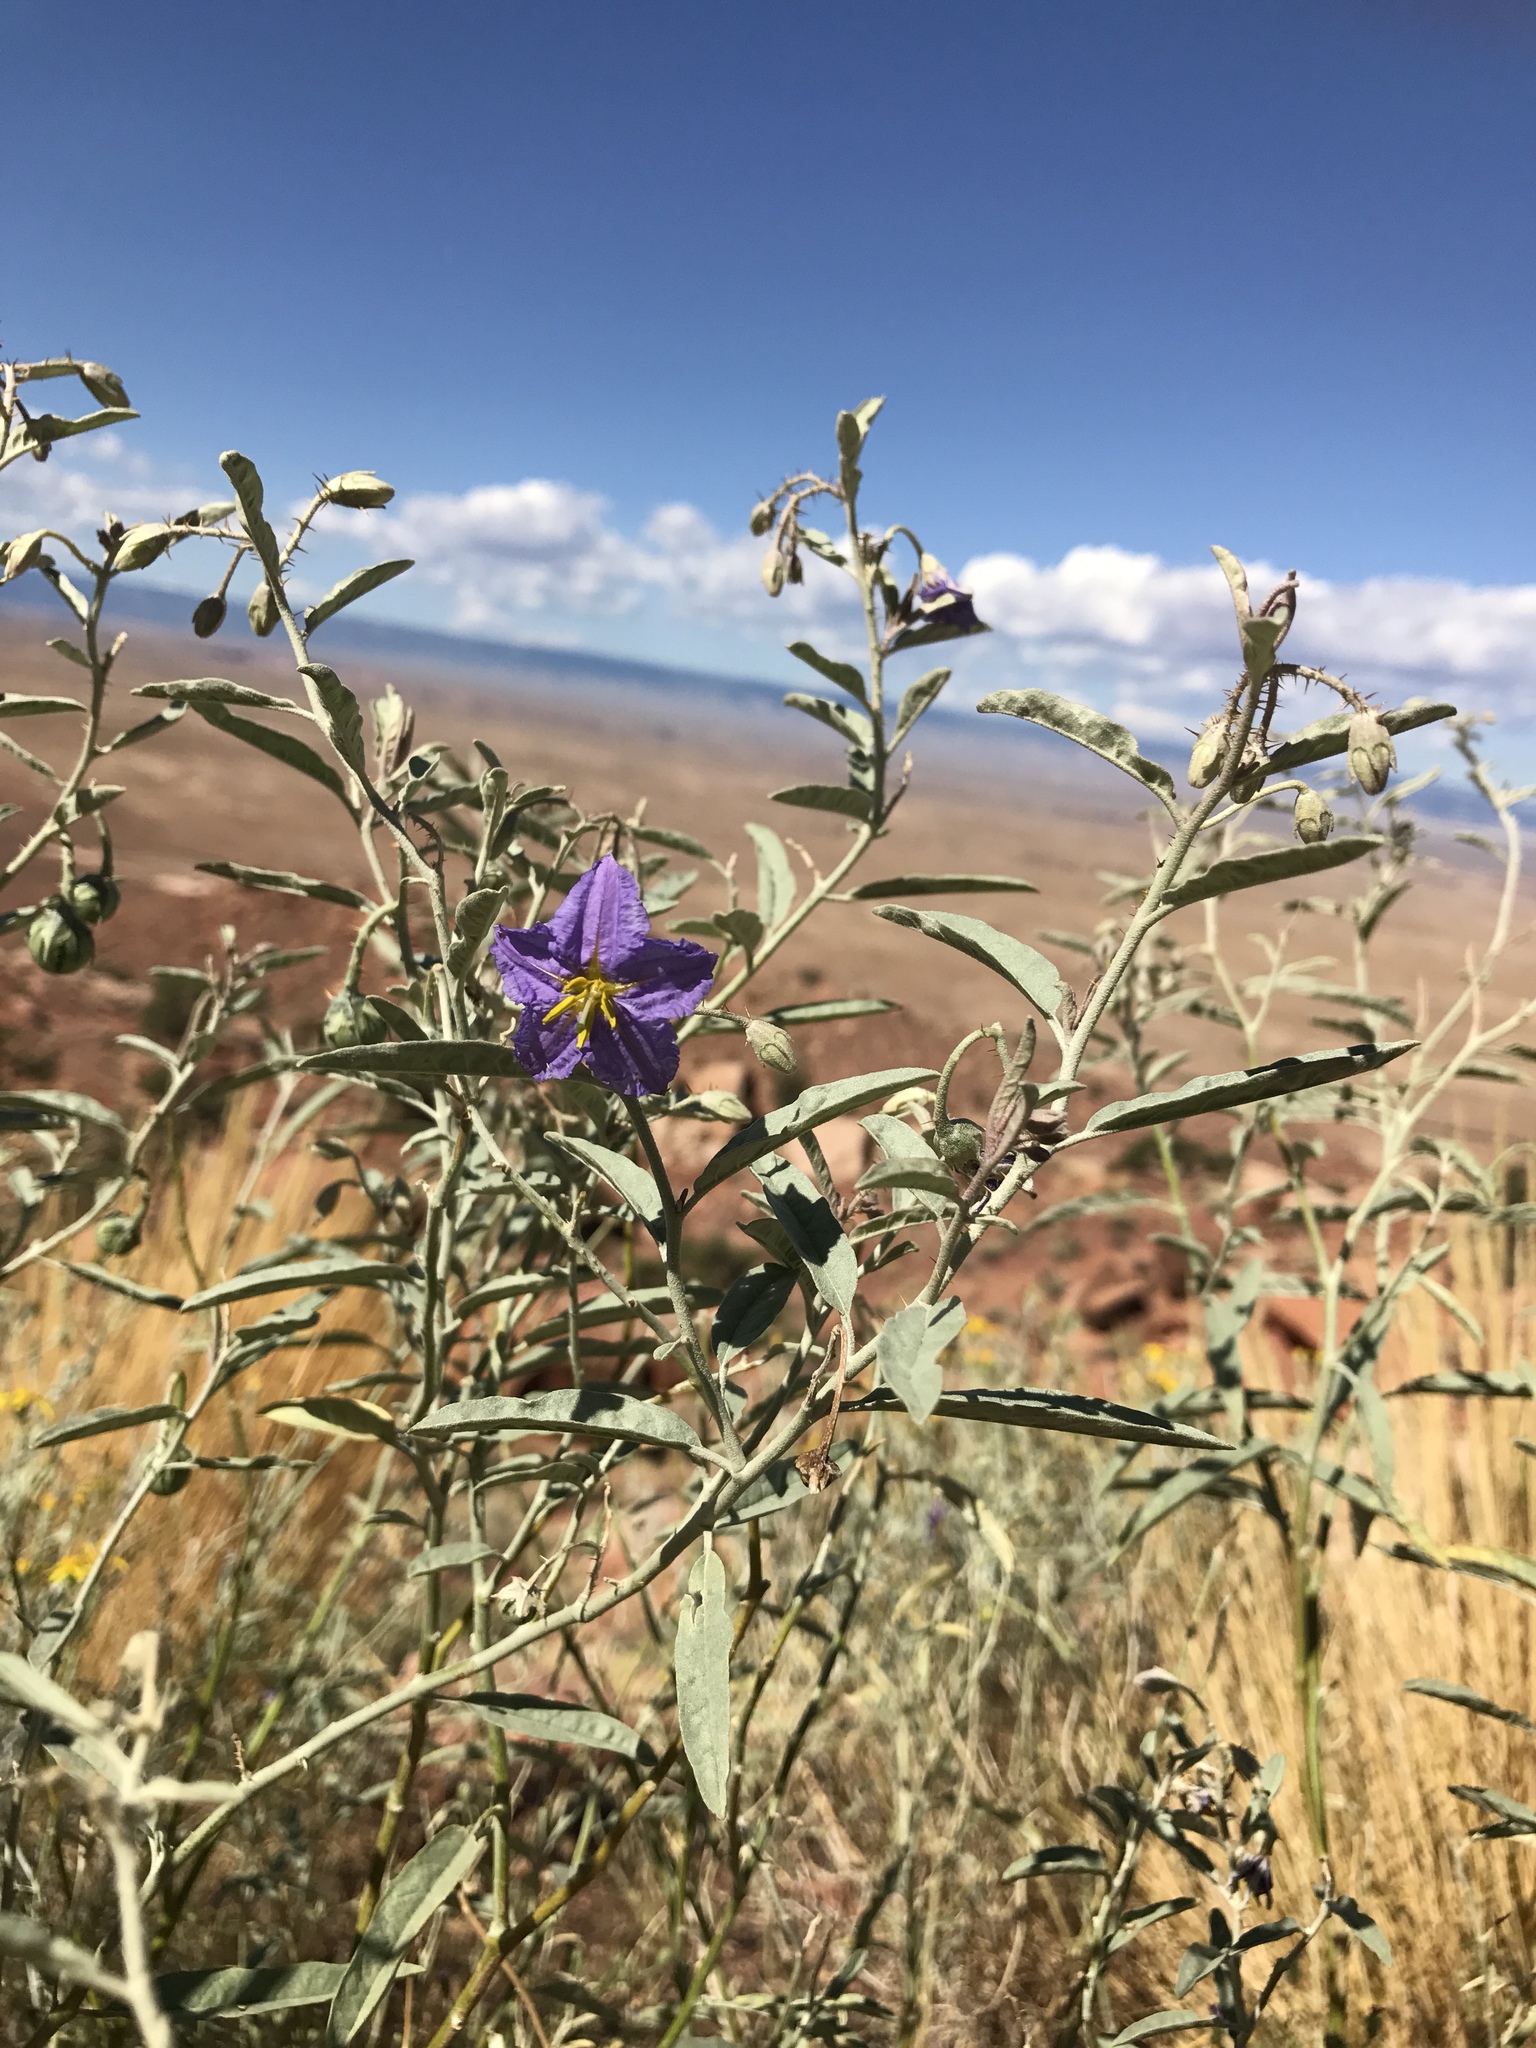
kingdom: Plantae
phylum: Tracheophyta
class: Magnoliopsida
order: Solanales
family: Solanaceae
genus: Solanum
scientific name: Solanum elaeagnifolium
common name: Silverleaf nightshade
